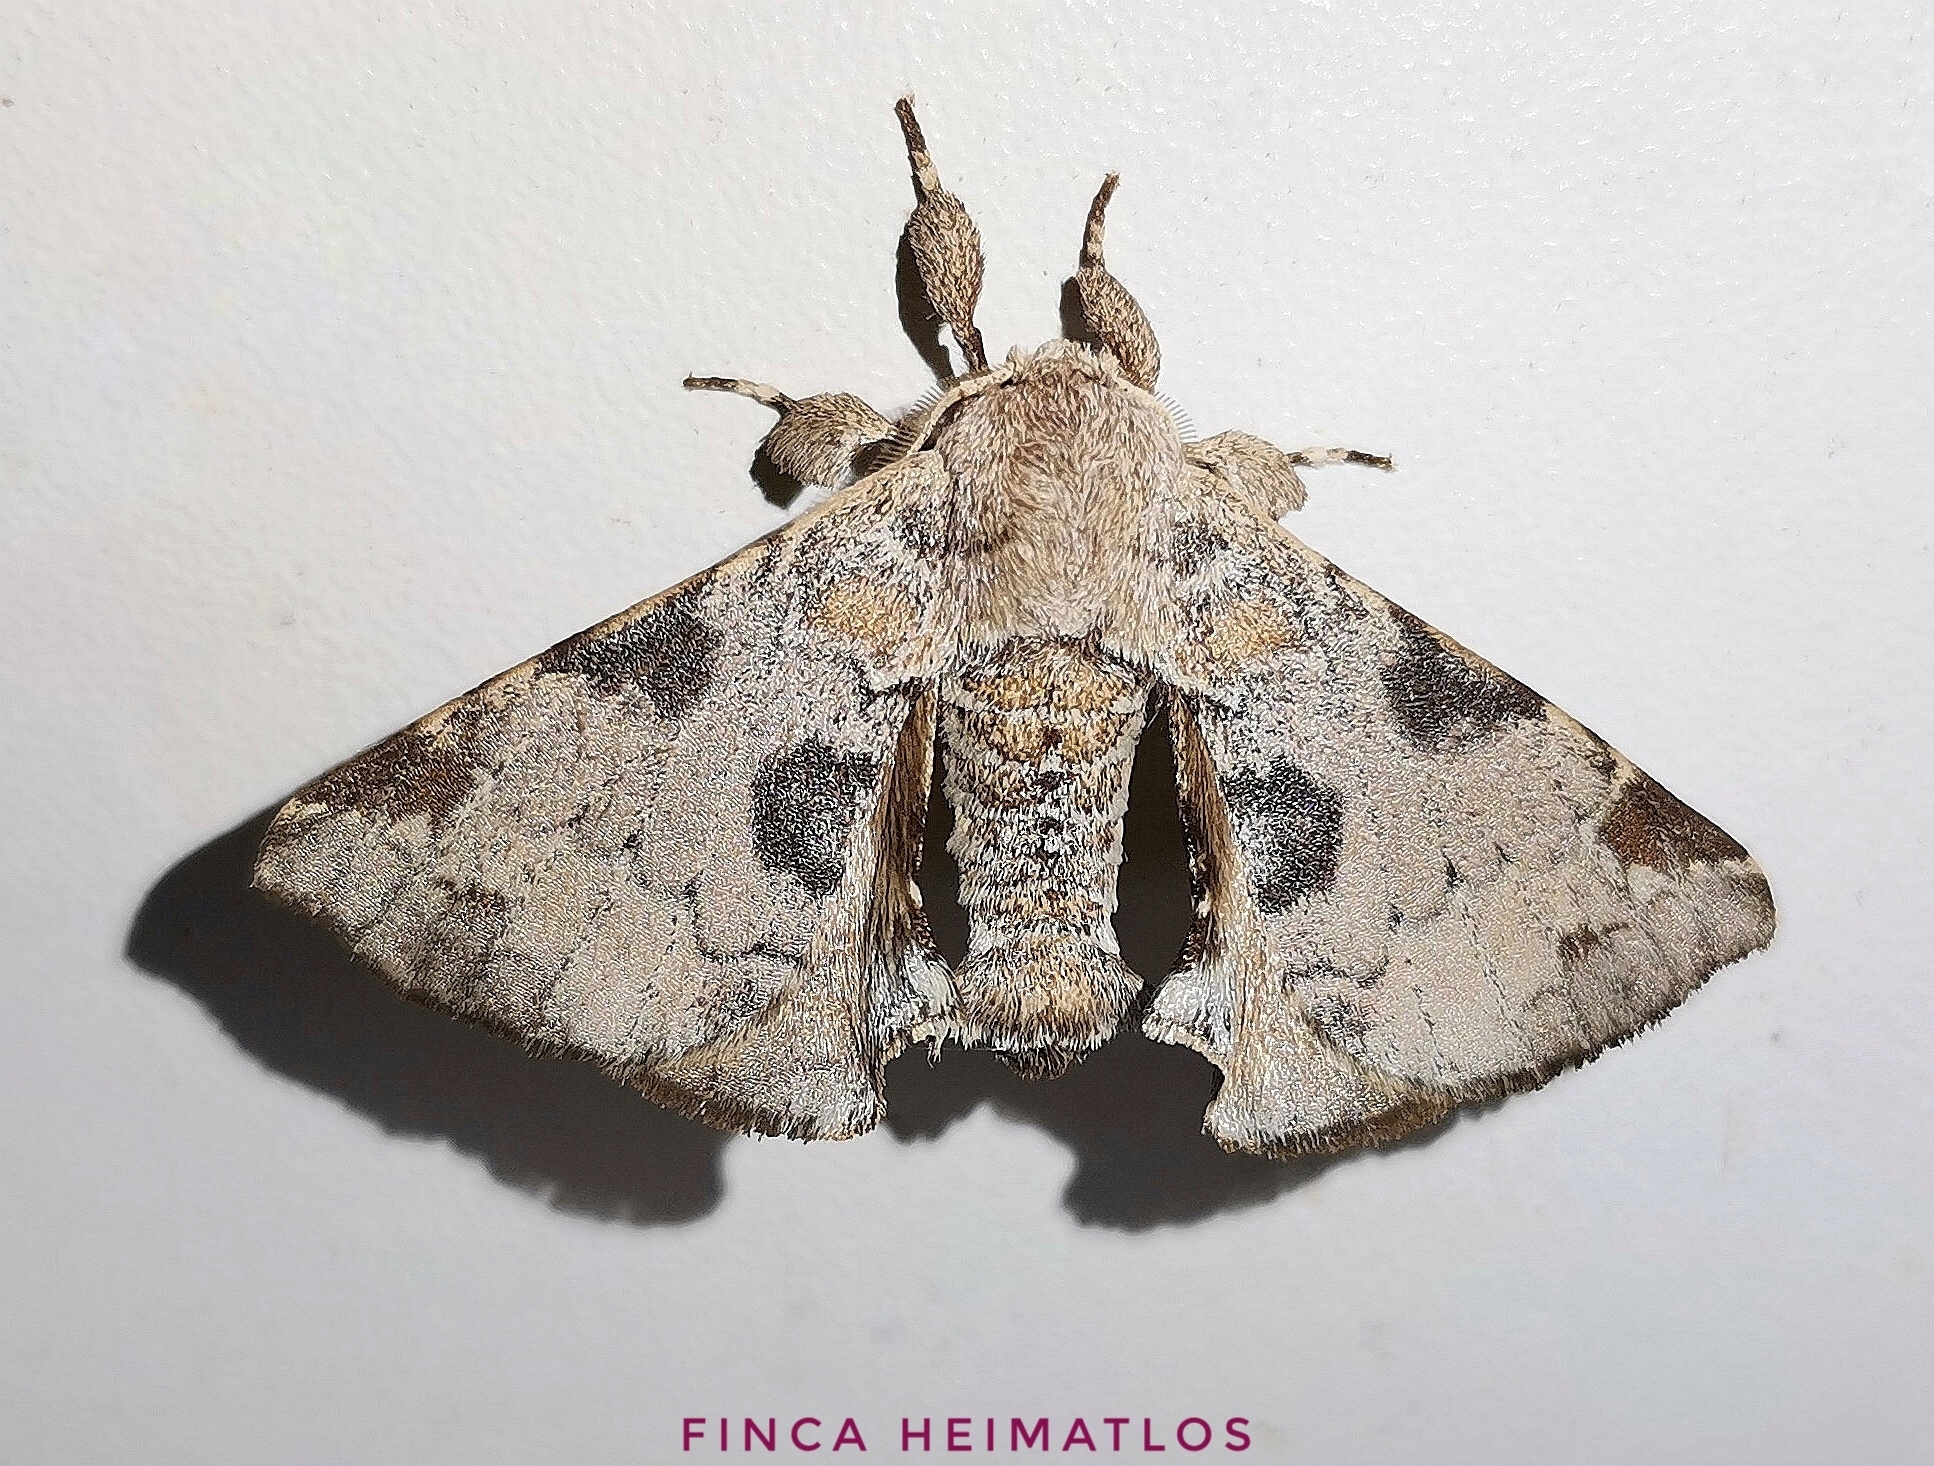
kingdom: Animalia
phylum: Arthropoda
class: Insecta
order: Lepidoptera
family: Apatelodidae
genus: Hygrochroa
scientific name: Hygrochroa nina
